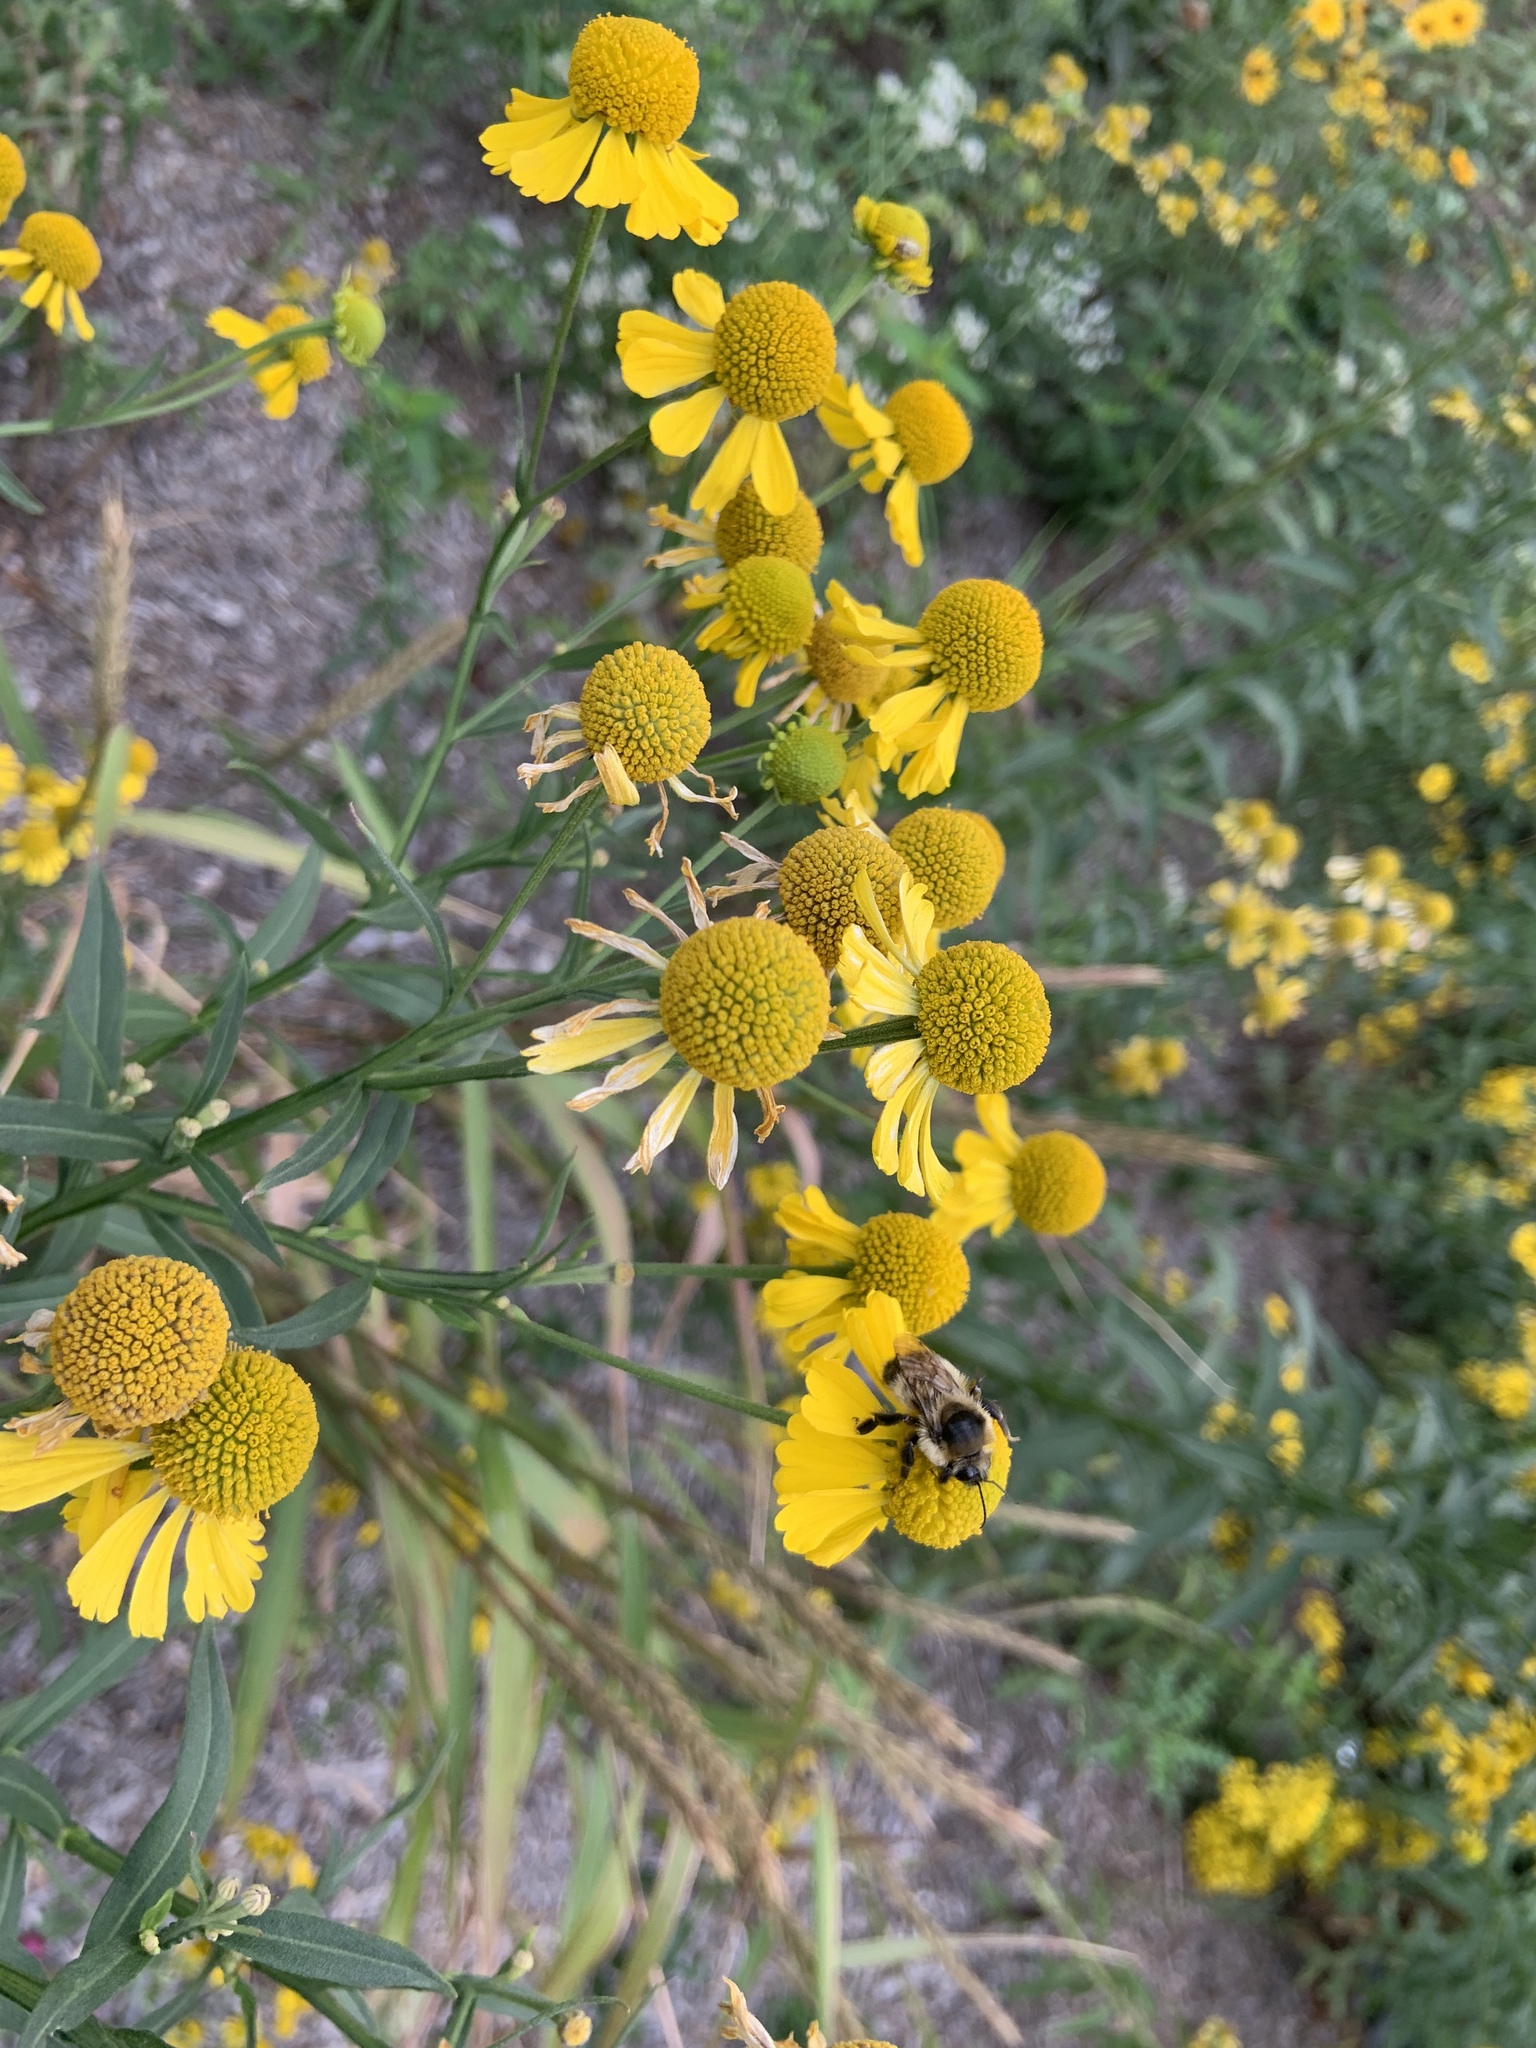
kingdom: Animalia
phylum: Arthropoda
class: Insecta
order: Hymenoptera
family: Apidae
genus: Bombus
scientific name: Bombus rufocinctus
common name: Red-belted bumble bee
